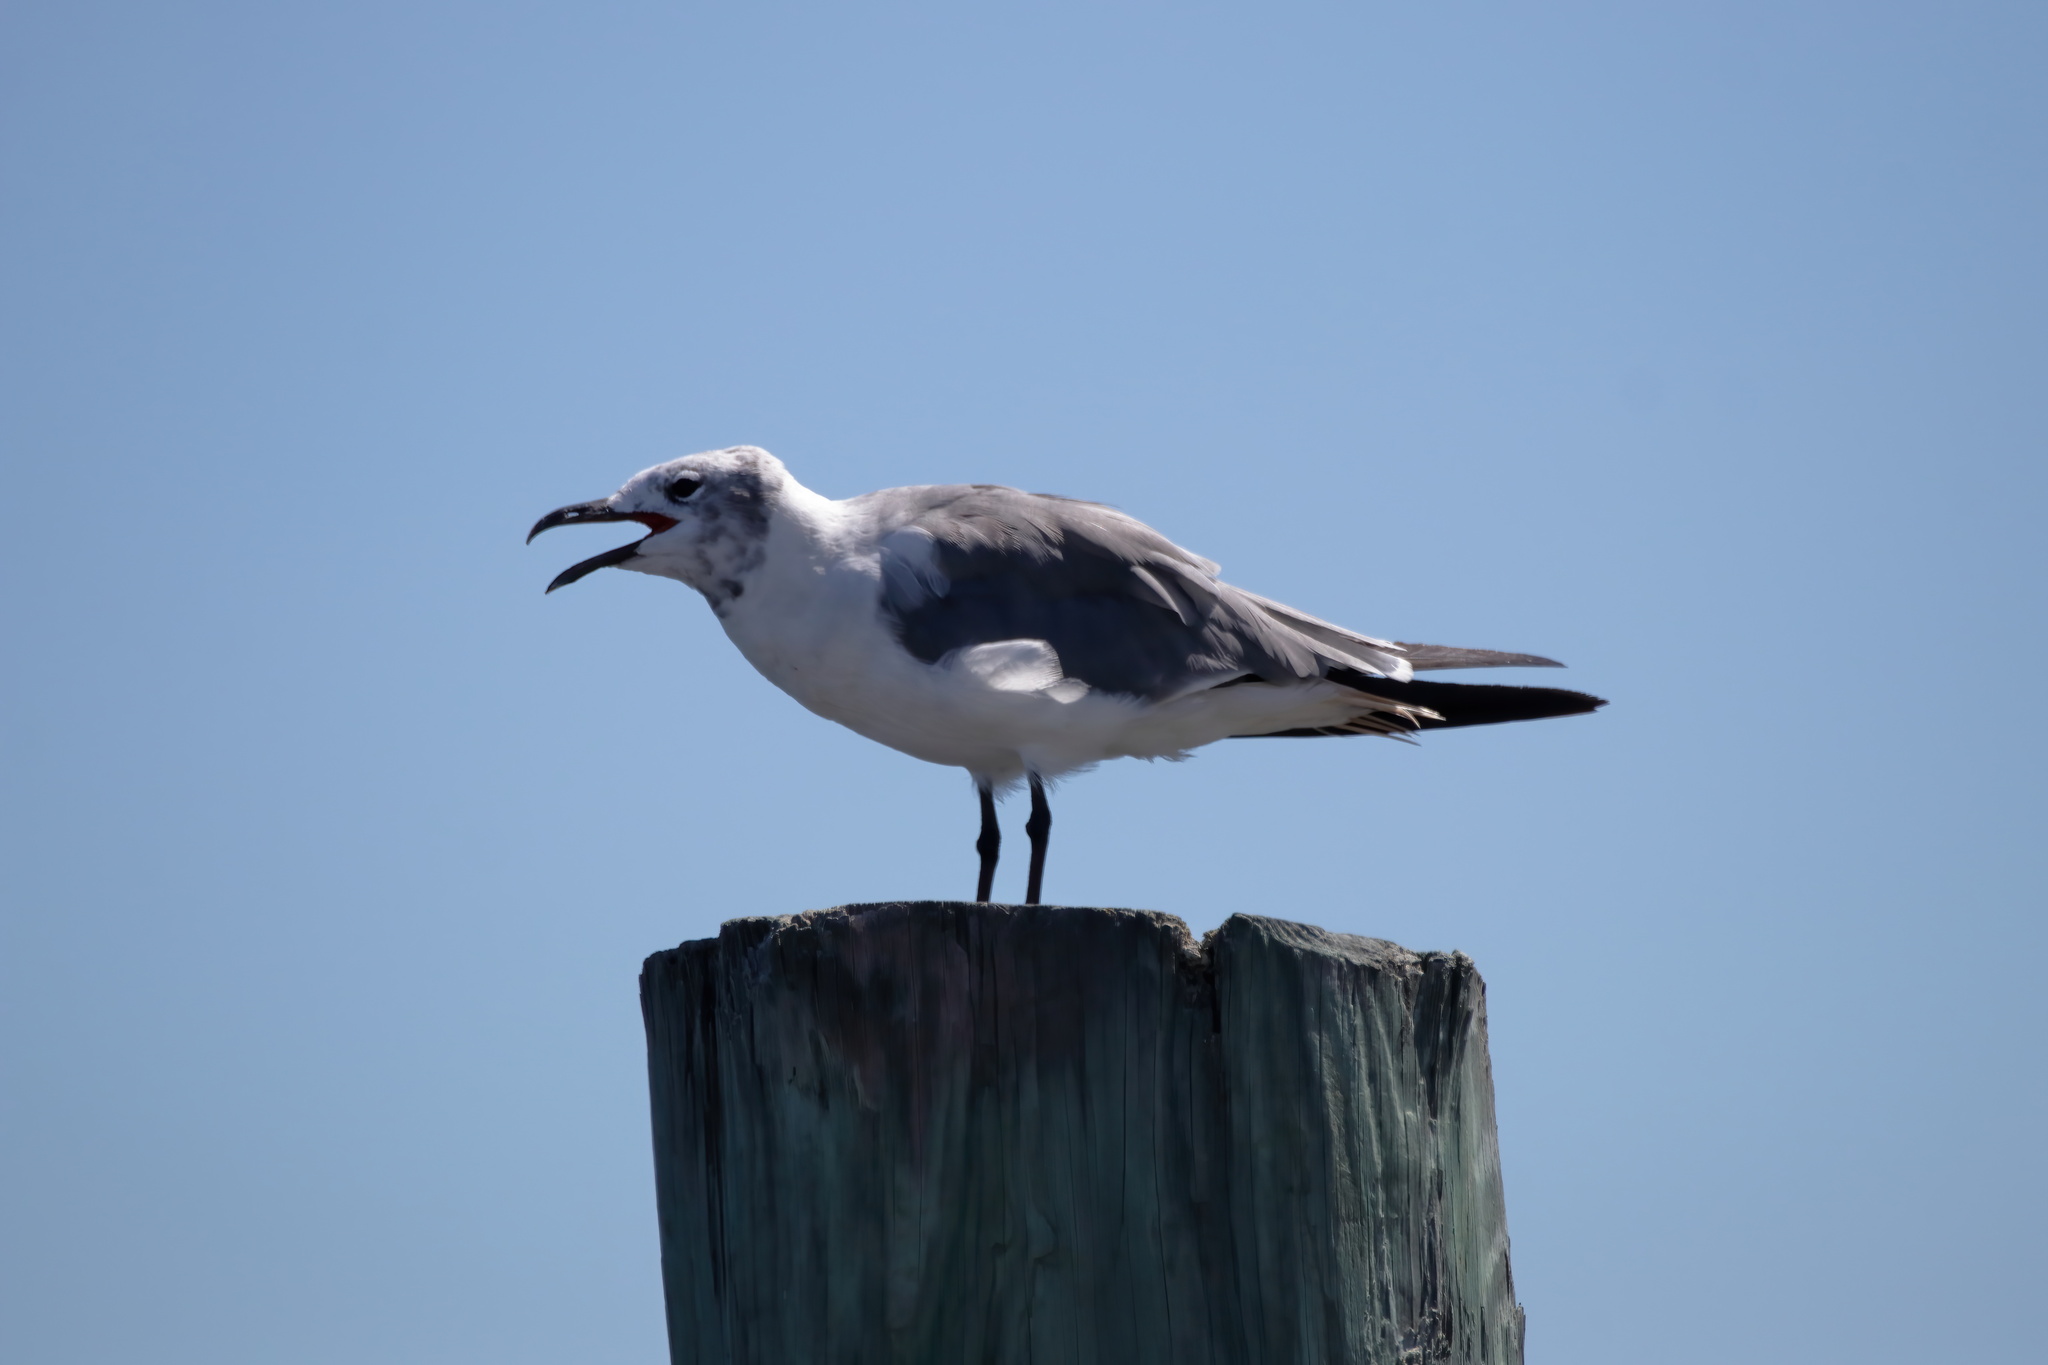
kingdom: Animalia
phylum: Chordata
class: Aves
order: Charadriiformes
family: Laridae
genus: Leucophaeus
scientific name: Leucophaeus atricilla
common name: Laughing gull
